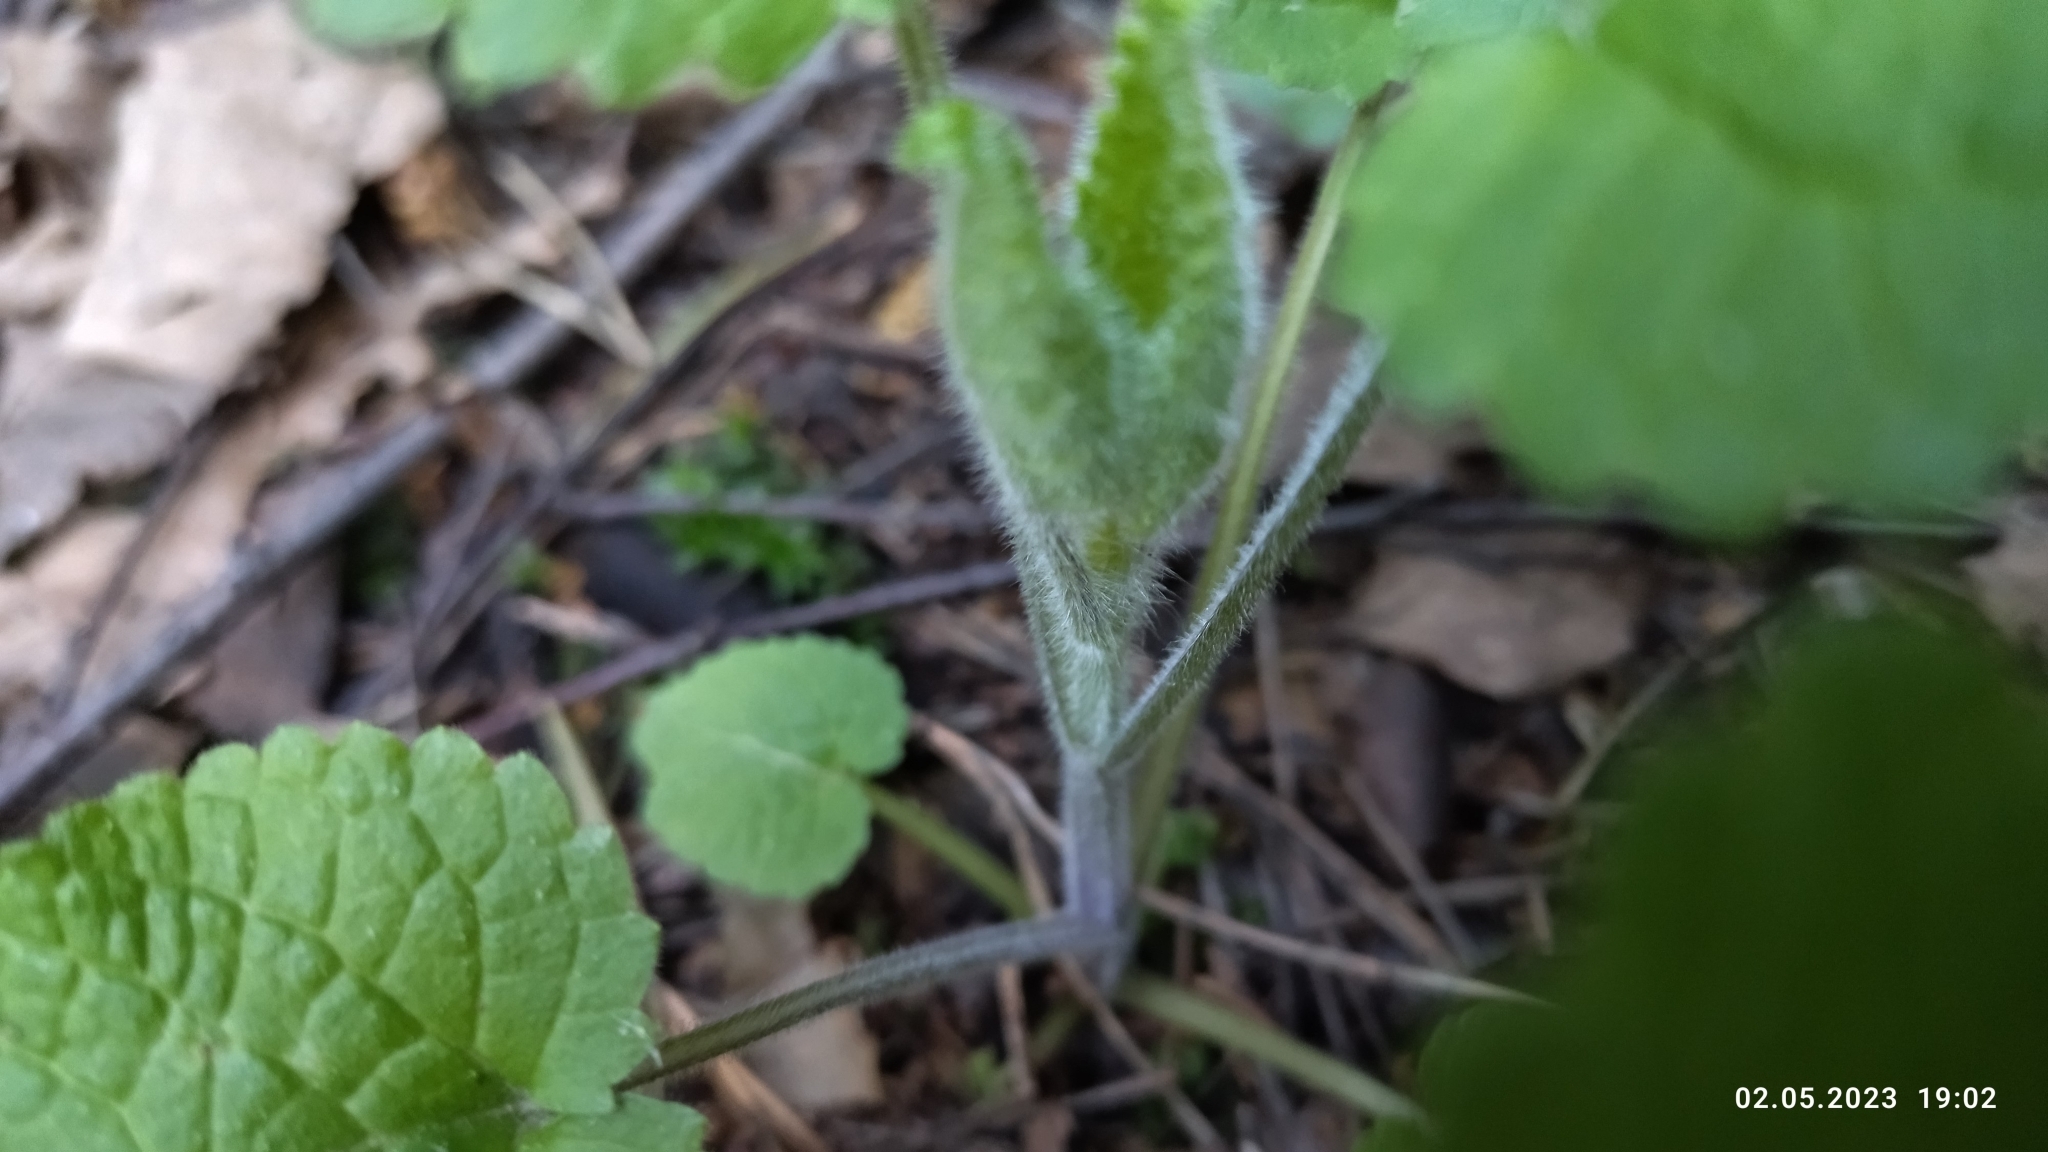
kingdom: Plantae
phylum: Tracheophyta
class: Magnoliopsida
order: Lamiales
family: Lamiaceae
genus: Stachys
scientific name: Stachys sylvatica
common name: Hedge woundwort
